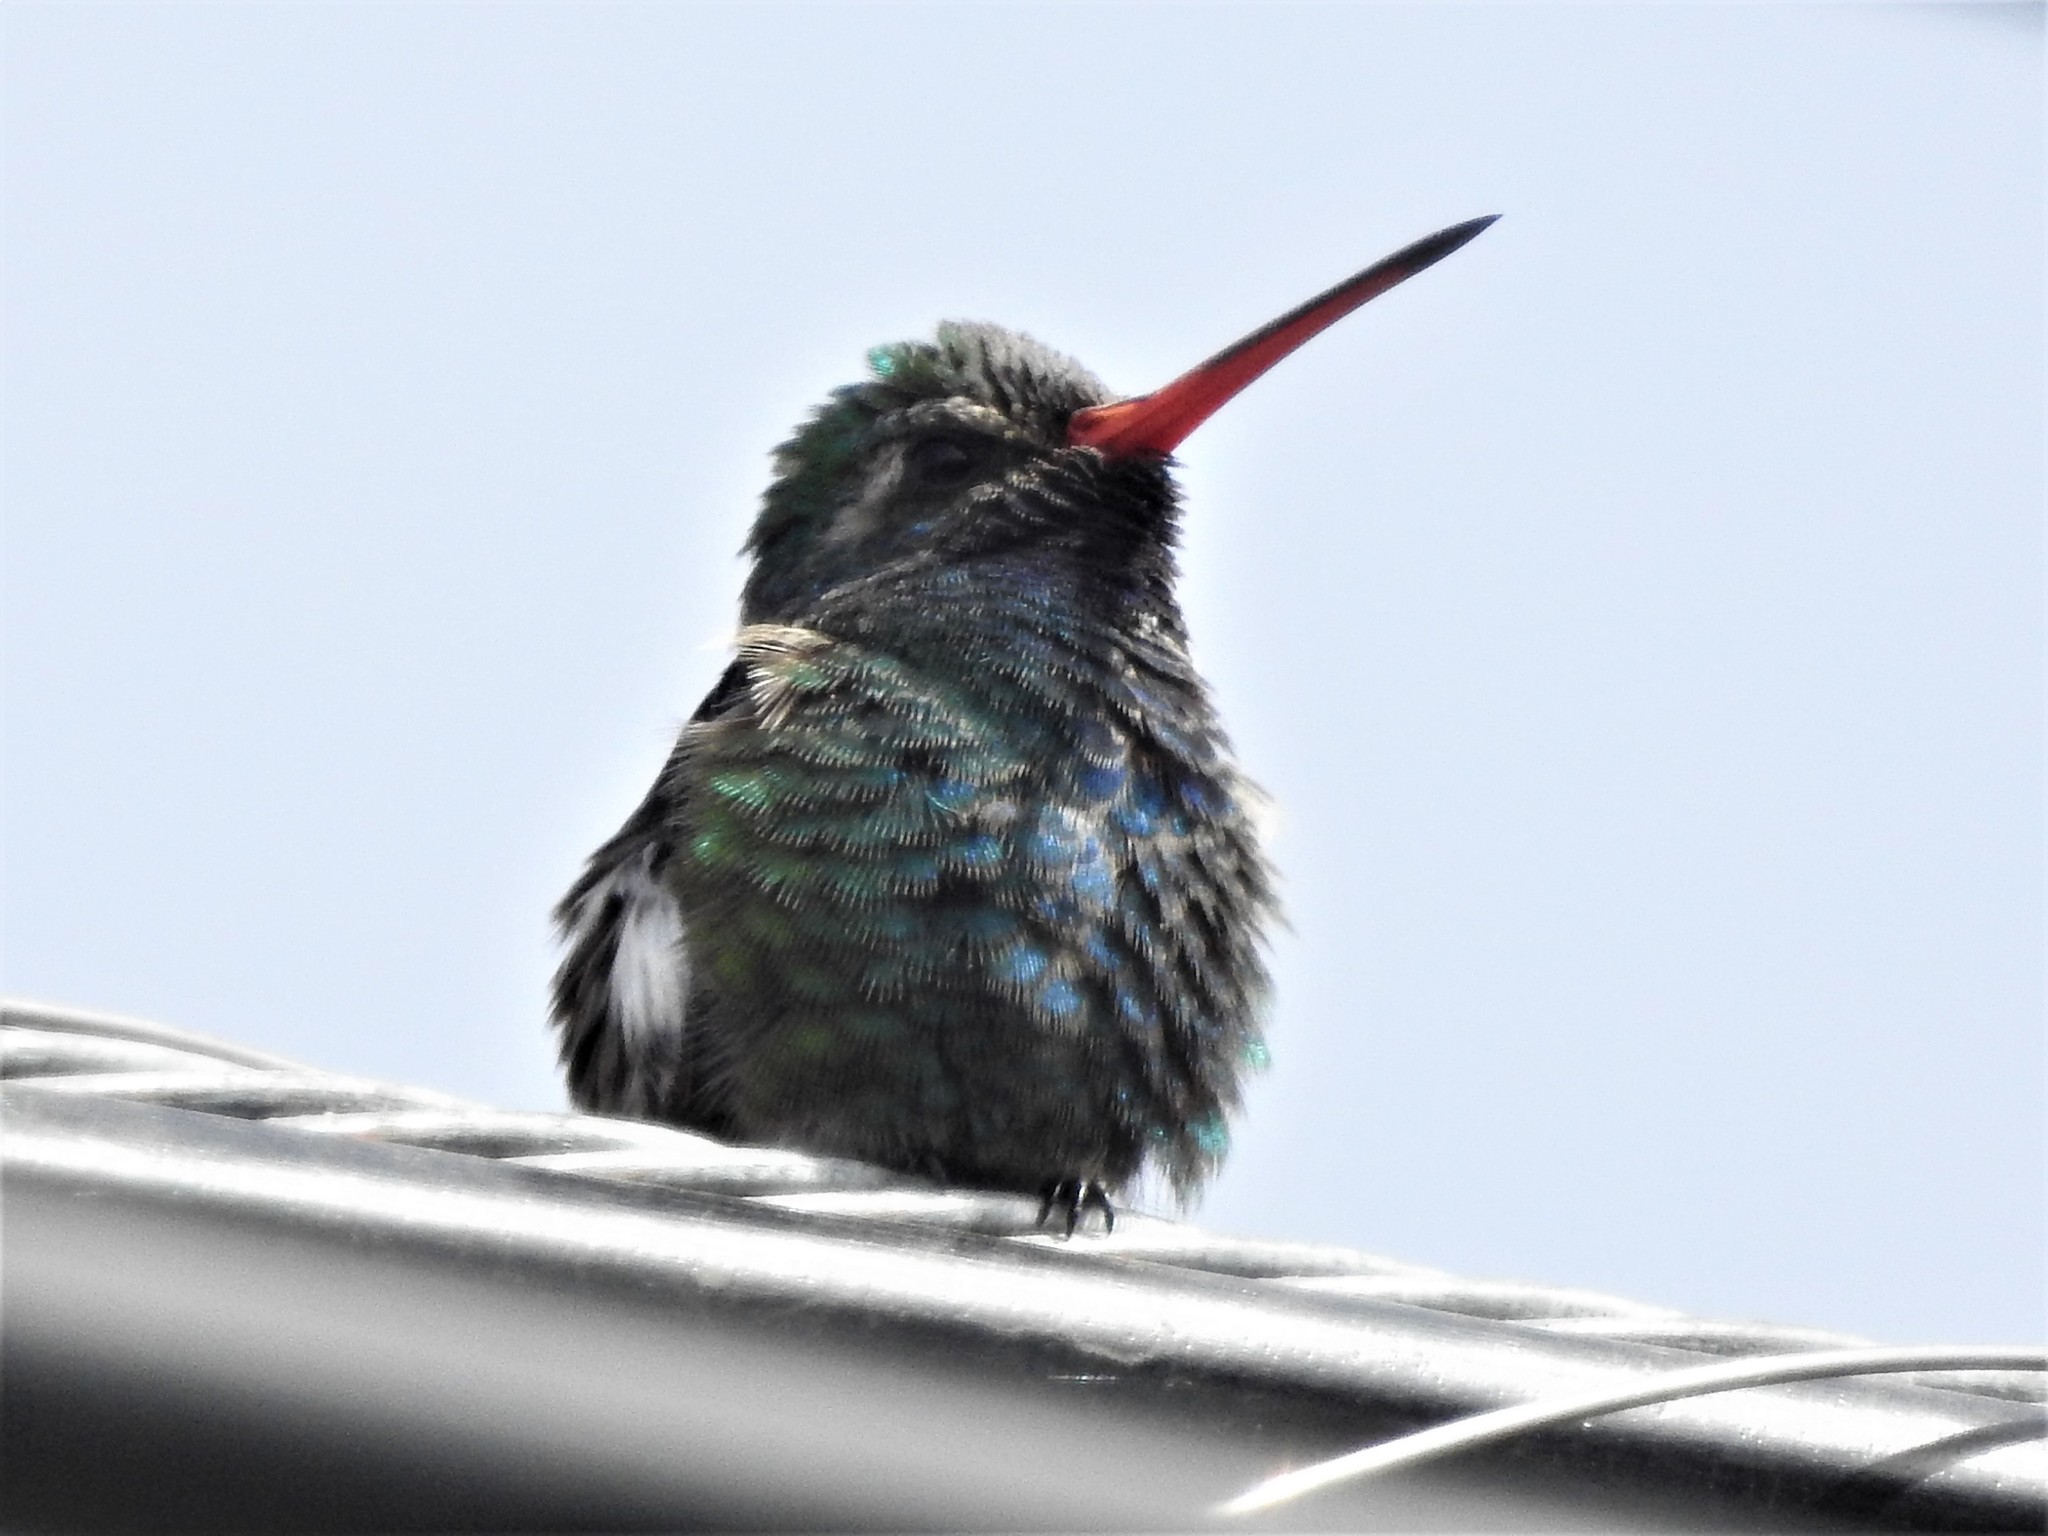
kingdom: Animalia
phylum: Chordata
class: Aves
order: Apodiformes
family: Trochilidae
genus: Cynanthus
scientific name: Cynanthus latirostris
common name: Broad-billed hummingbird
